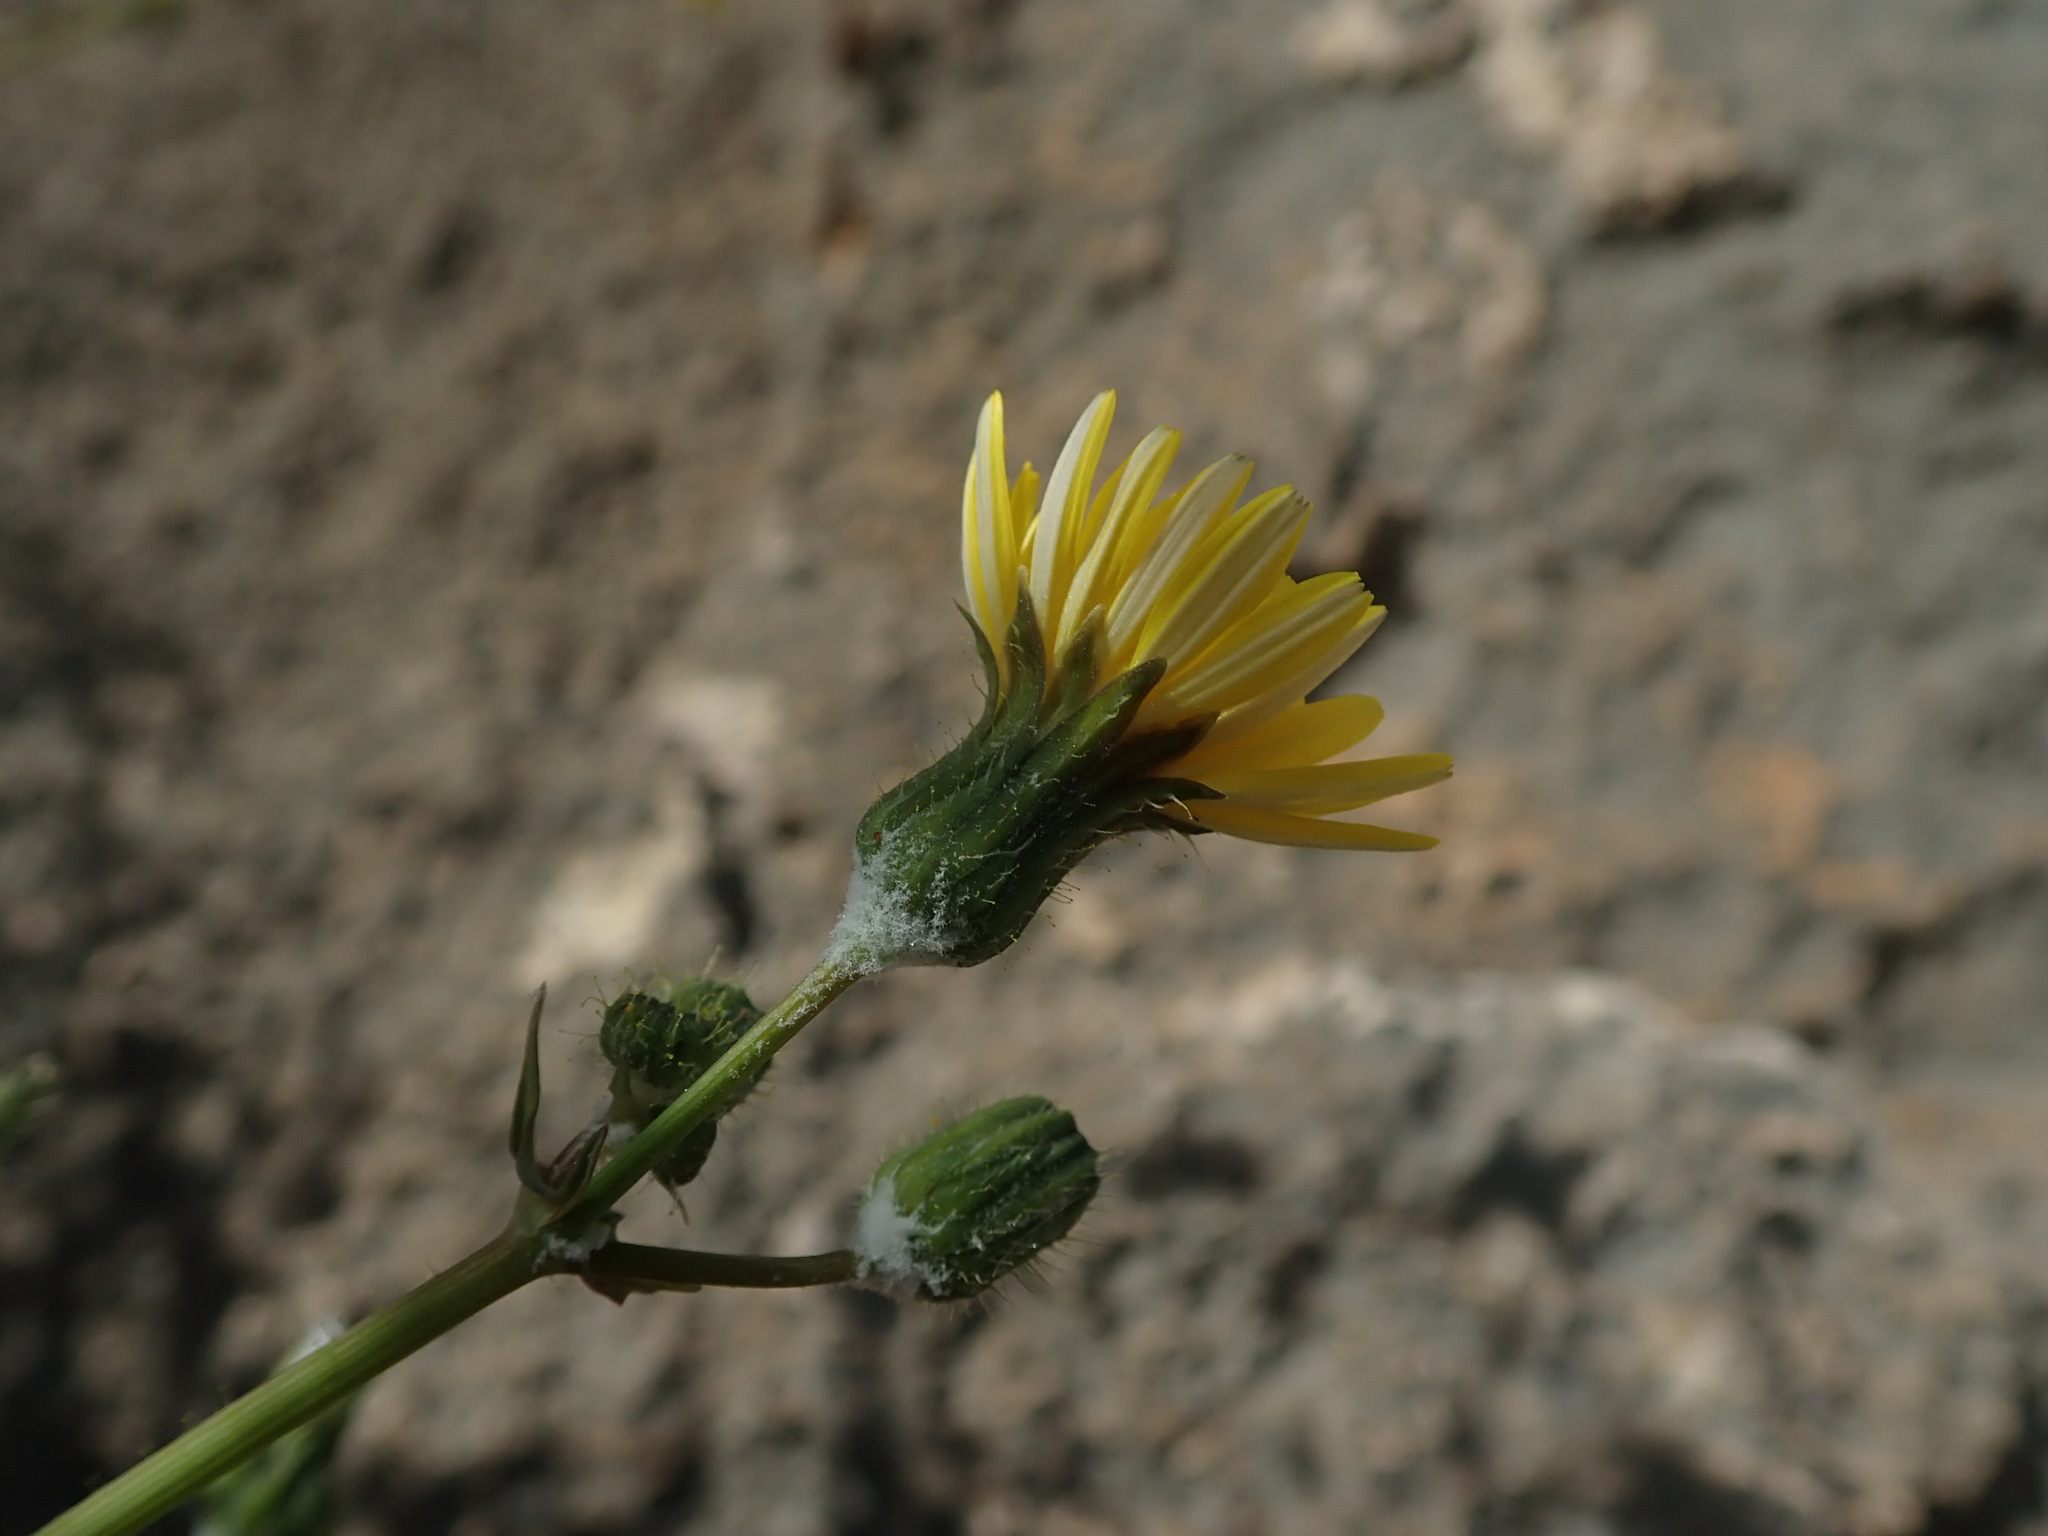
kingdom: Plantae
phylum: Tracheophyta
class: Magnoliopsida
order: Asterales
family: Asteraceae
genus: Sonchus
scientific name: Sonchus tenerrimus
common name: Clammy sowthistle
